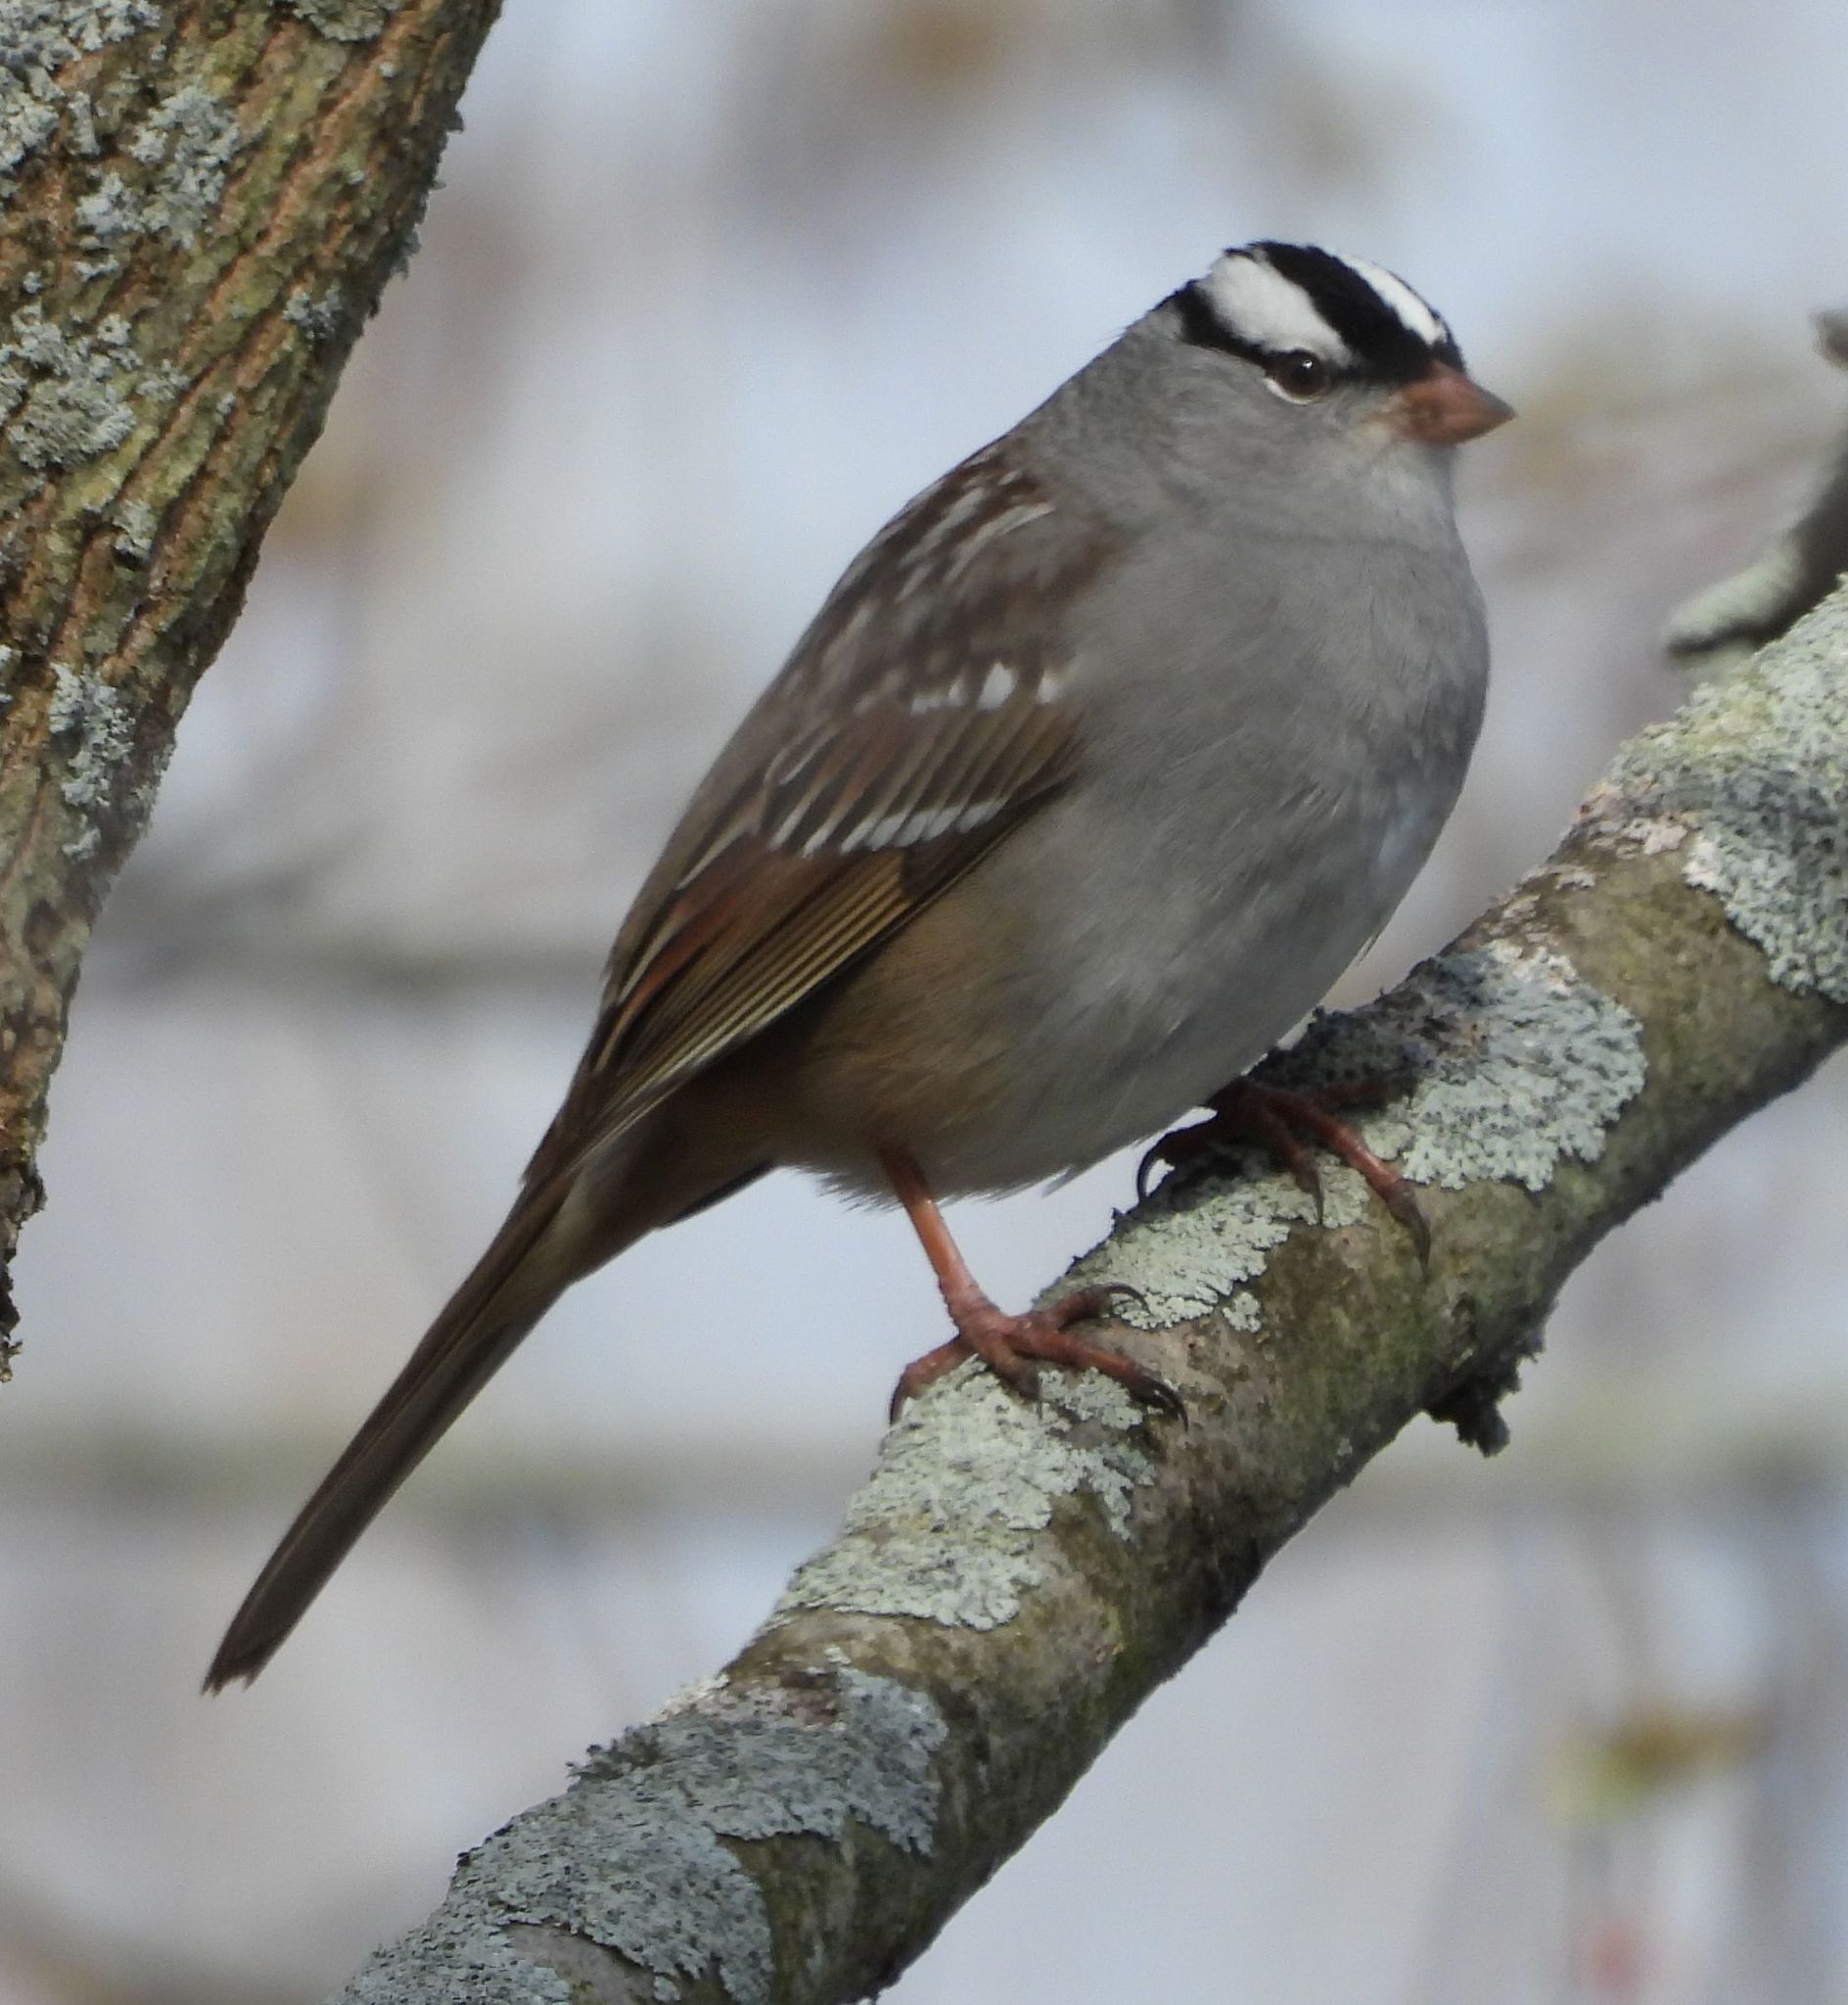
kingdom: Animalia
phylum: Chordata
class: Aves
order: Passeriformes
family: Passerellidae
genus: Zonotrichia
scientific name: Zonotrichia leucophrys
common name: White-crowned sparrow
